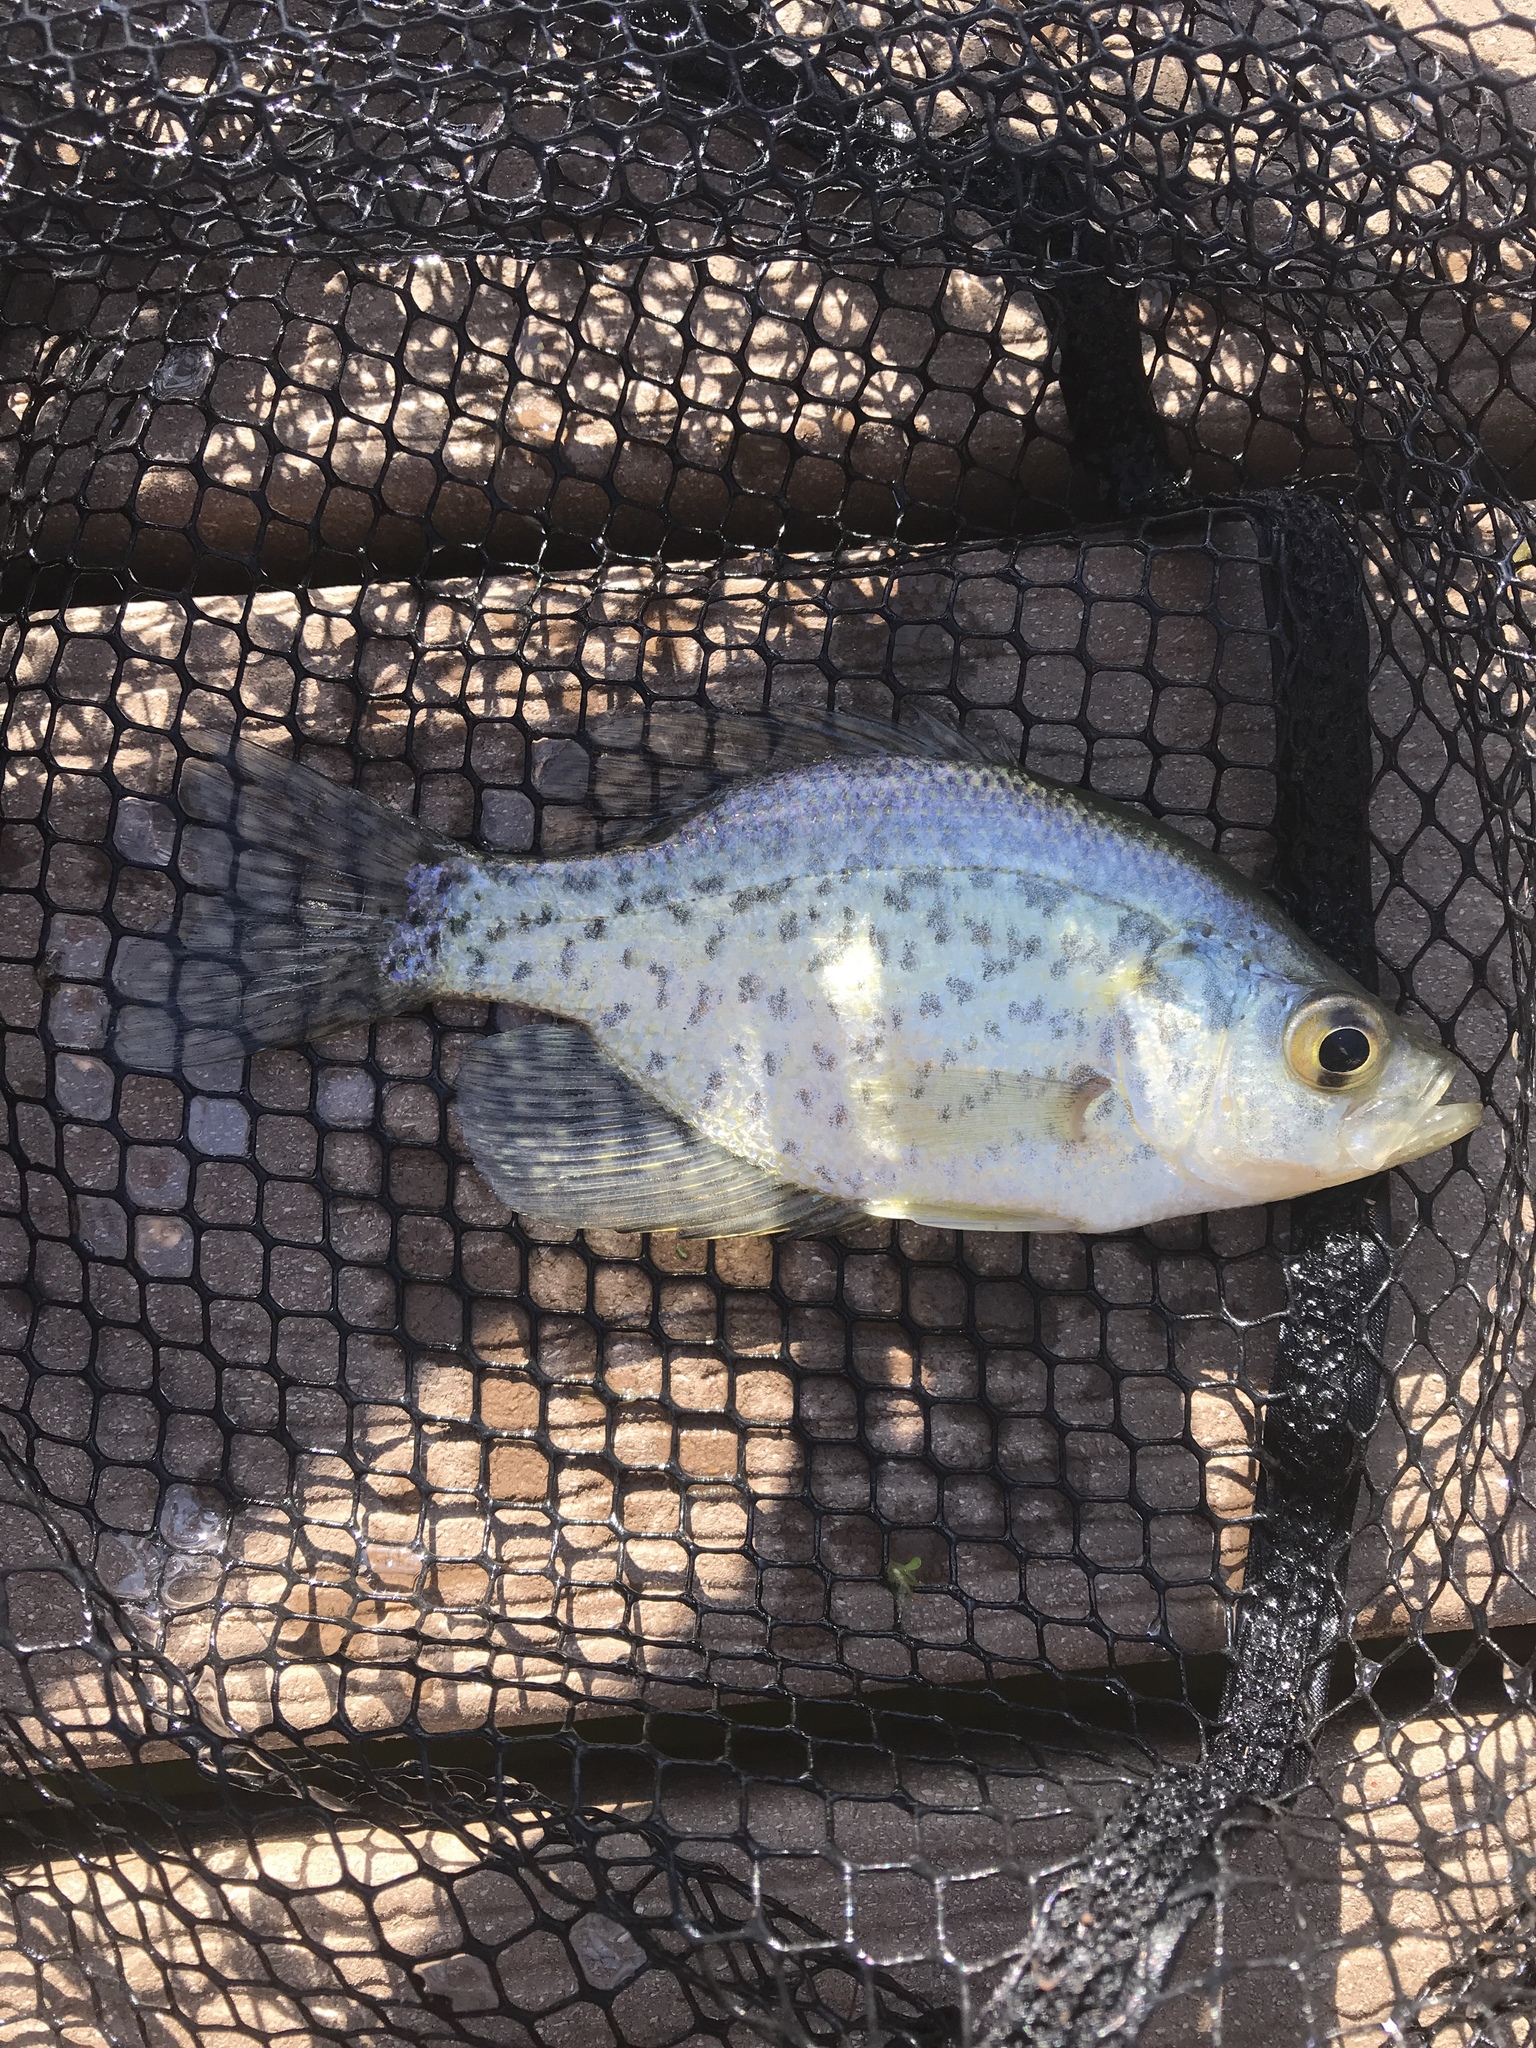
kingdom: Animalia
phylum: Chordata
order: Perciformes
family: Centrarchidae
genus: Pomoxis
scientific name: Pomoxis nigromaculatus
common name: Black crappie
